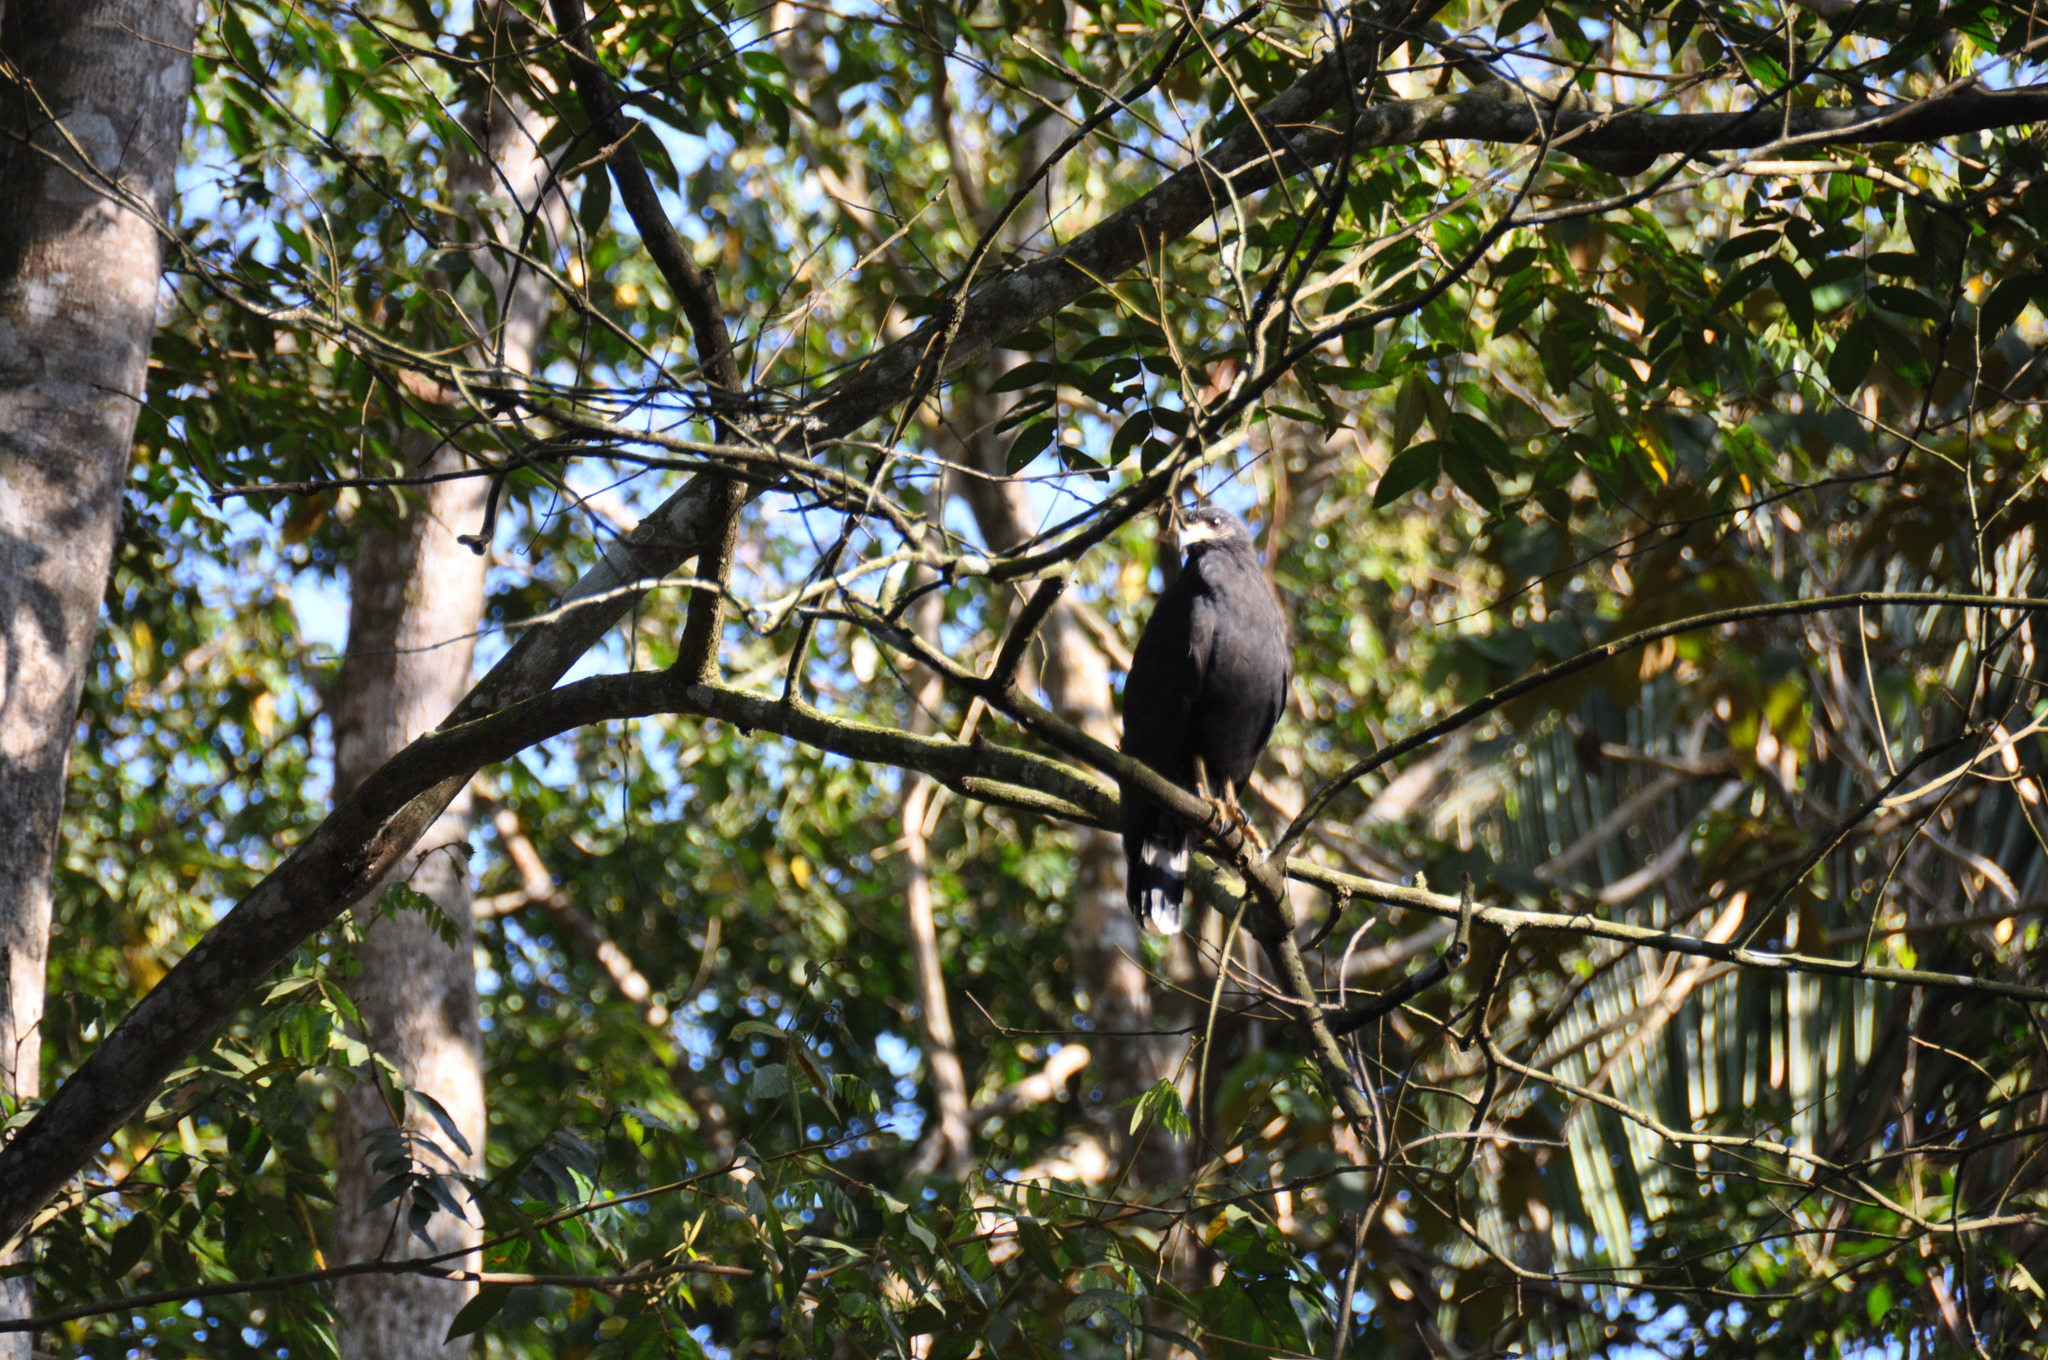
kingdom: Animalia
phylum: Chordata
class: Aves
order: Accipitriformes
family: Accipitridae
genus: Buteogallus
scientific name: Buteogallus anthracinus
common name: Common black hawk
